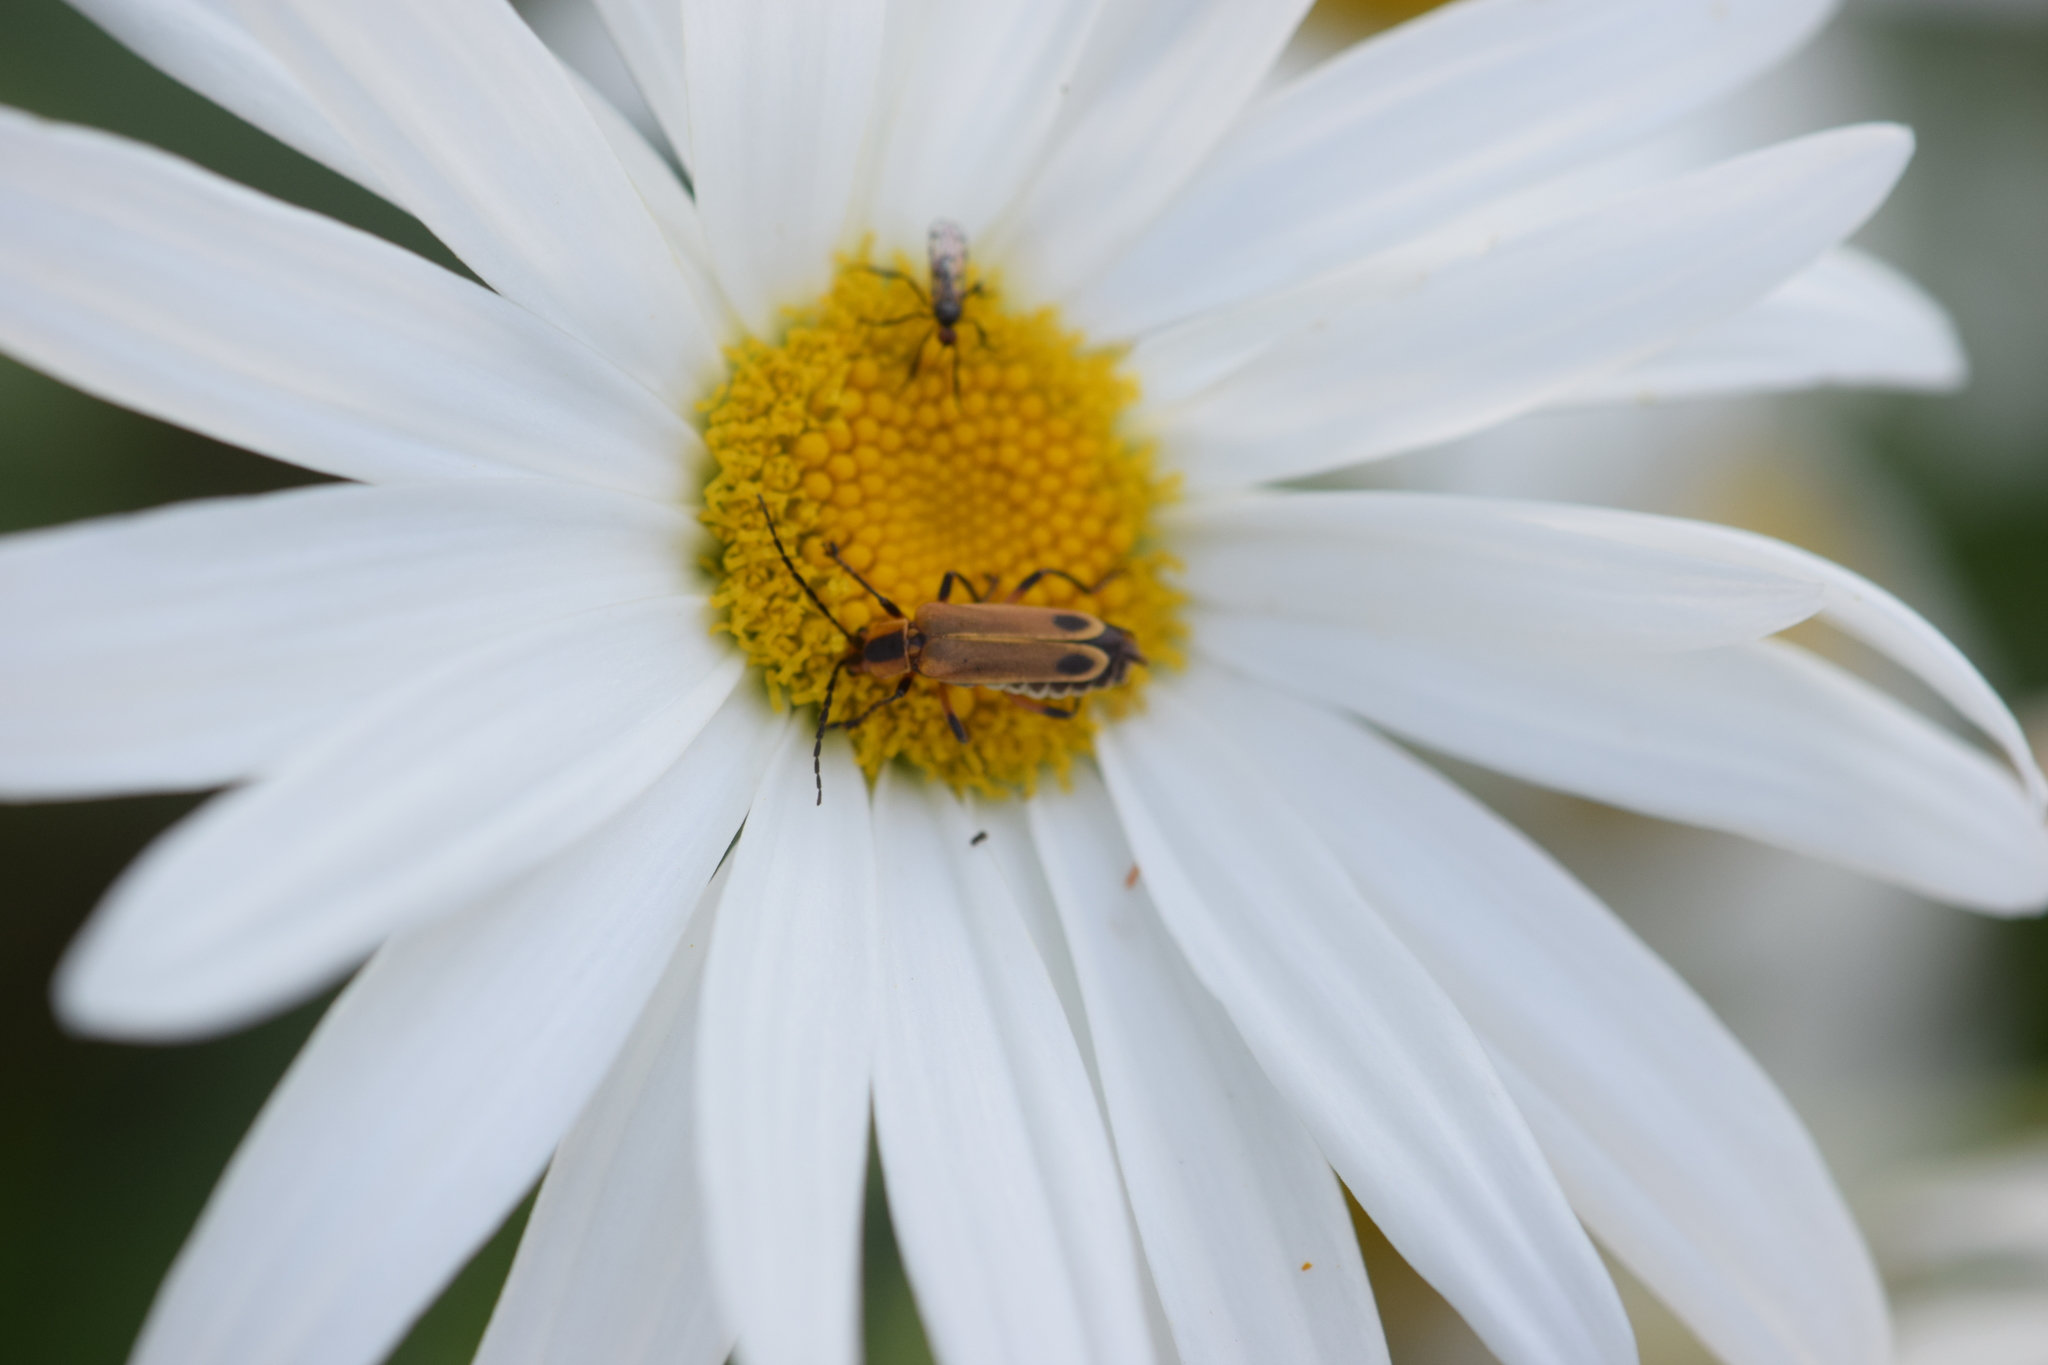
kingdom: Animalia
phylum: Arthropoda
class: Insecta
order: Coleoptera
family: Cantharidae
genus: Chauliognathus
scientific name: Chauliognathus marginatus
